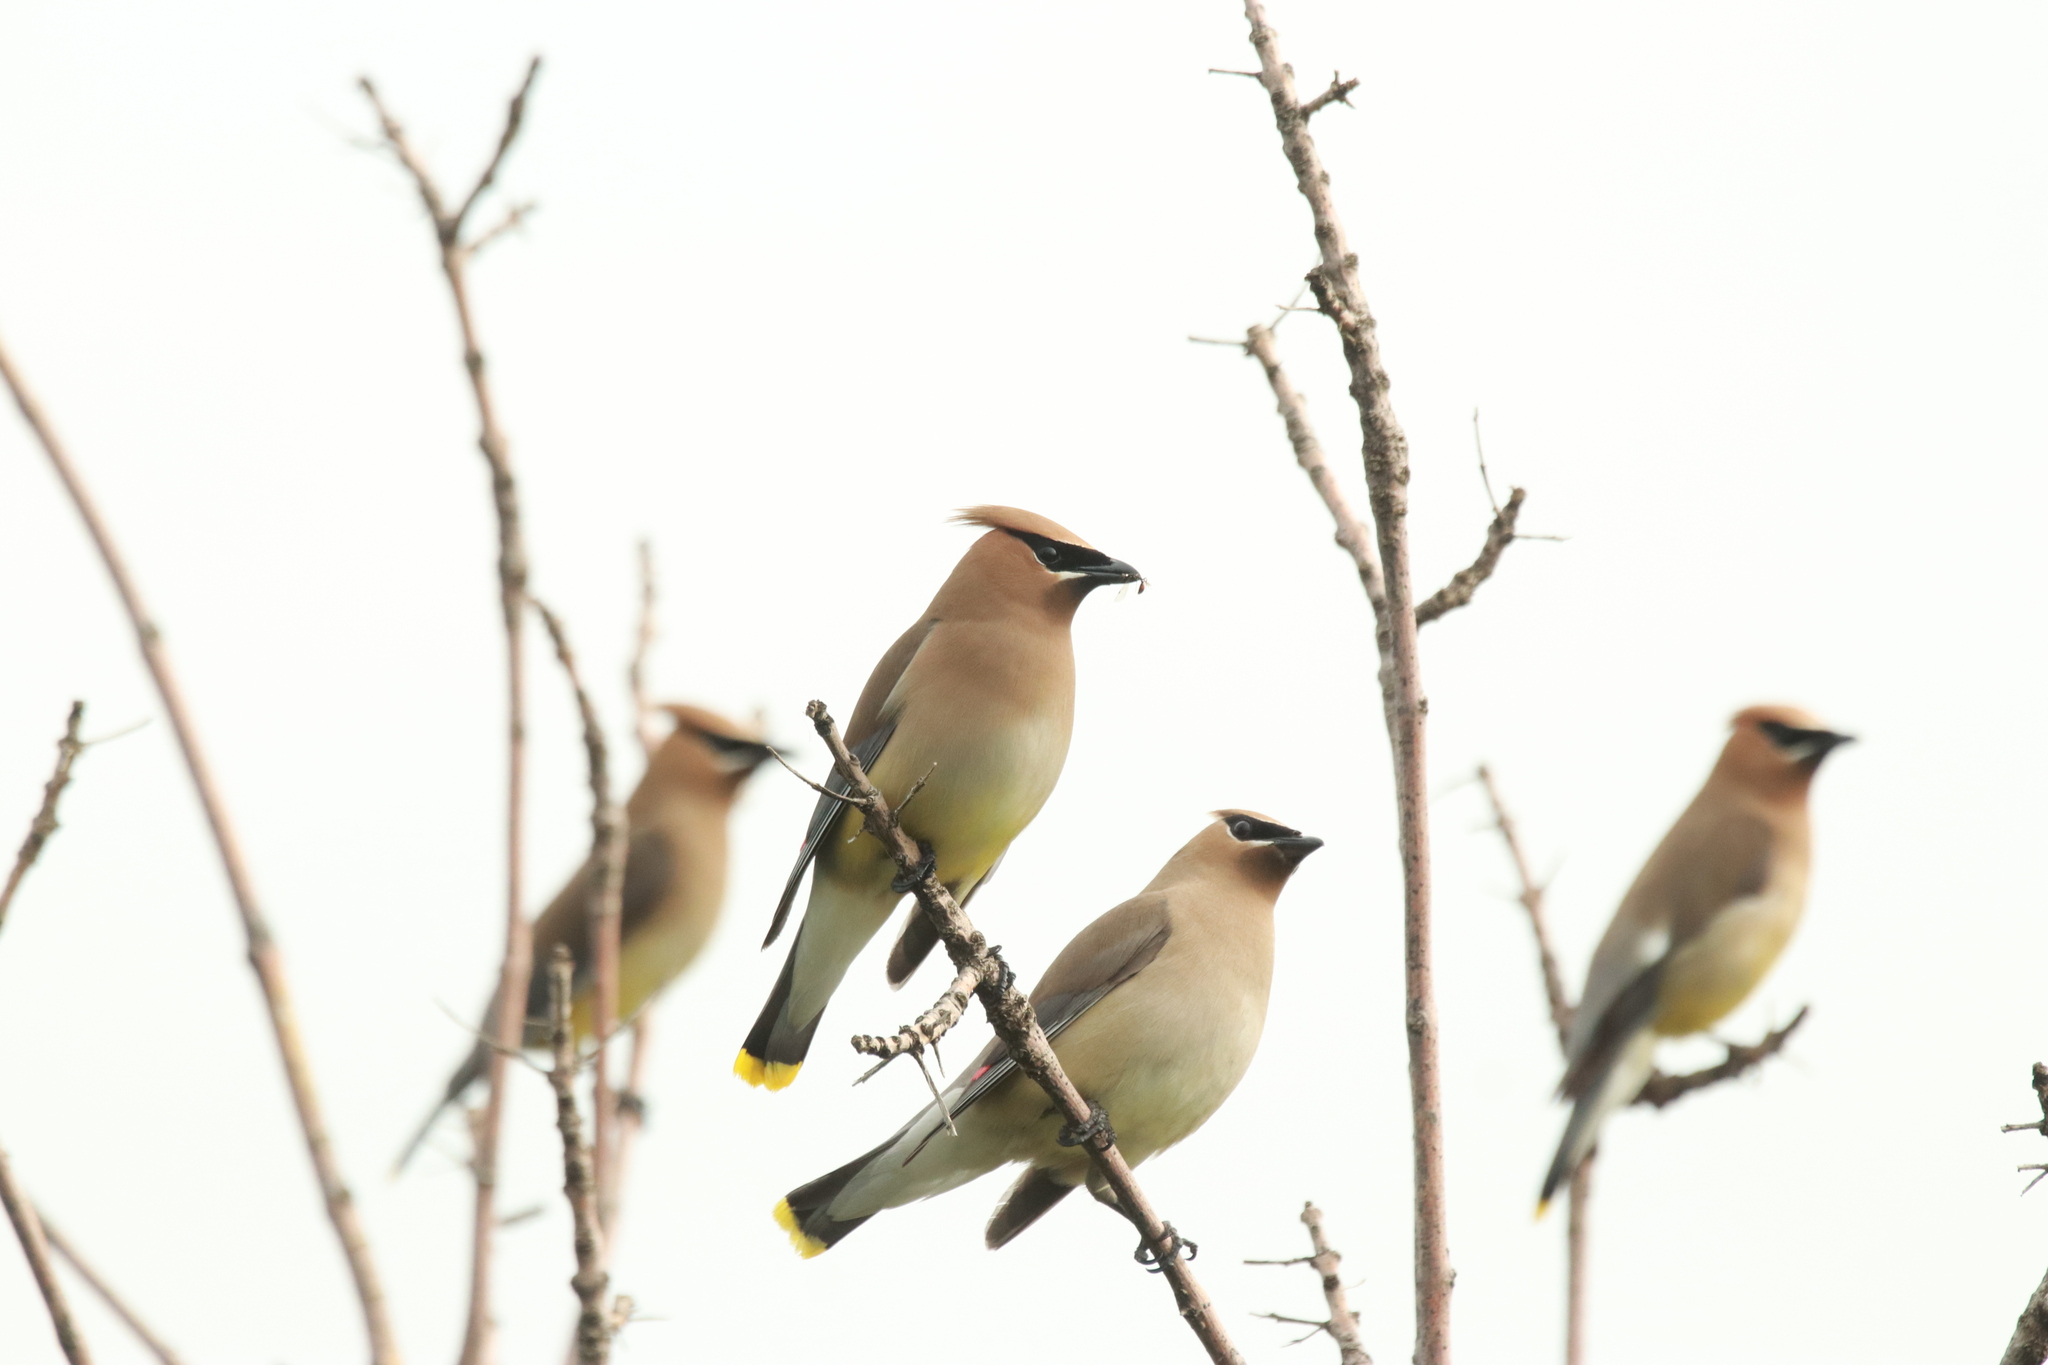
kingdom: Animalia
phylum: Chordata
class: Aves
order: Passeriformes
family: Bombycillidae
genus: Bombycilla
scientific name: Bombycilla cedrorum
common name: Cedar waxwing
